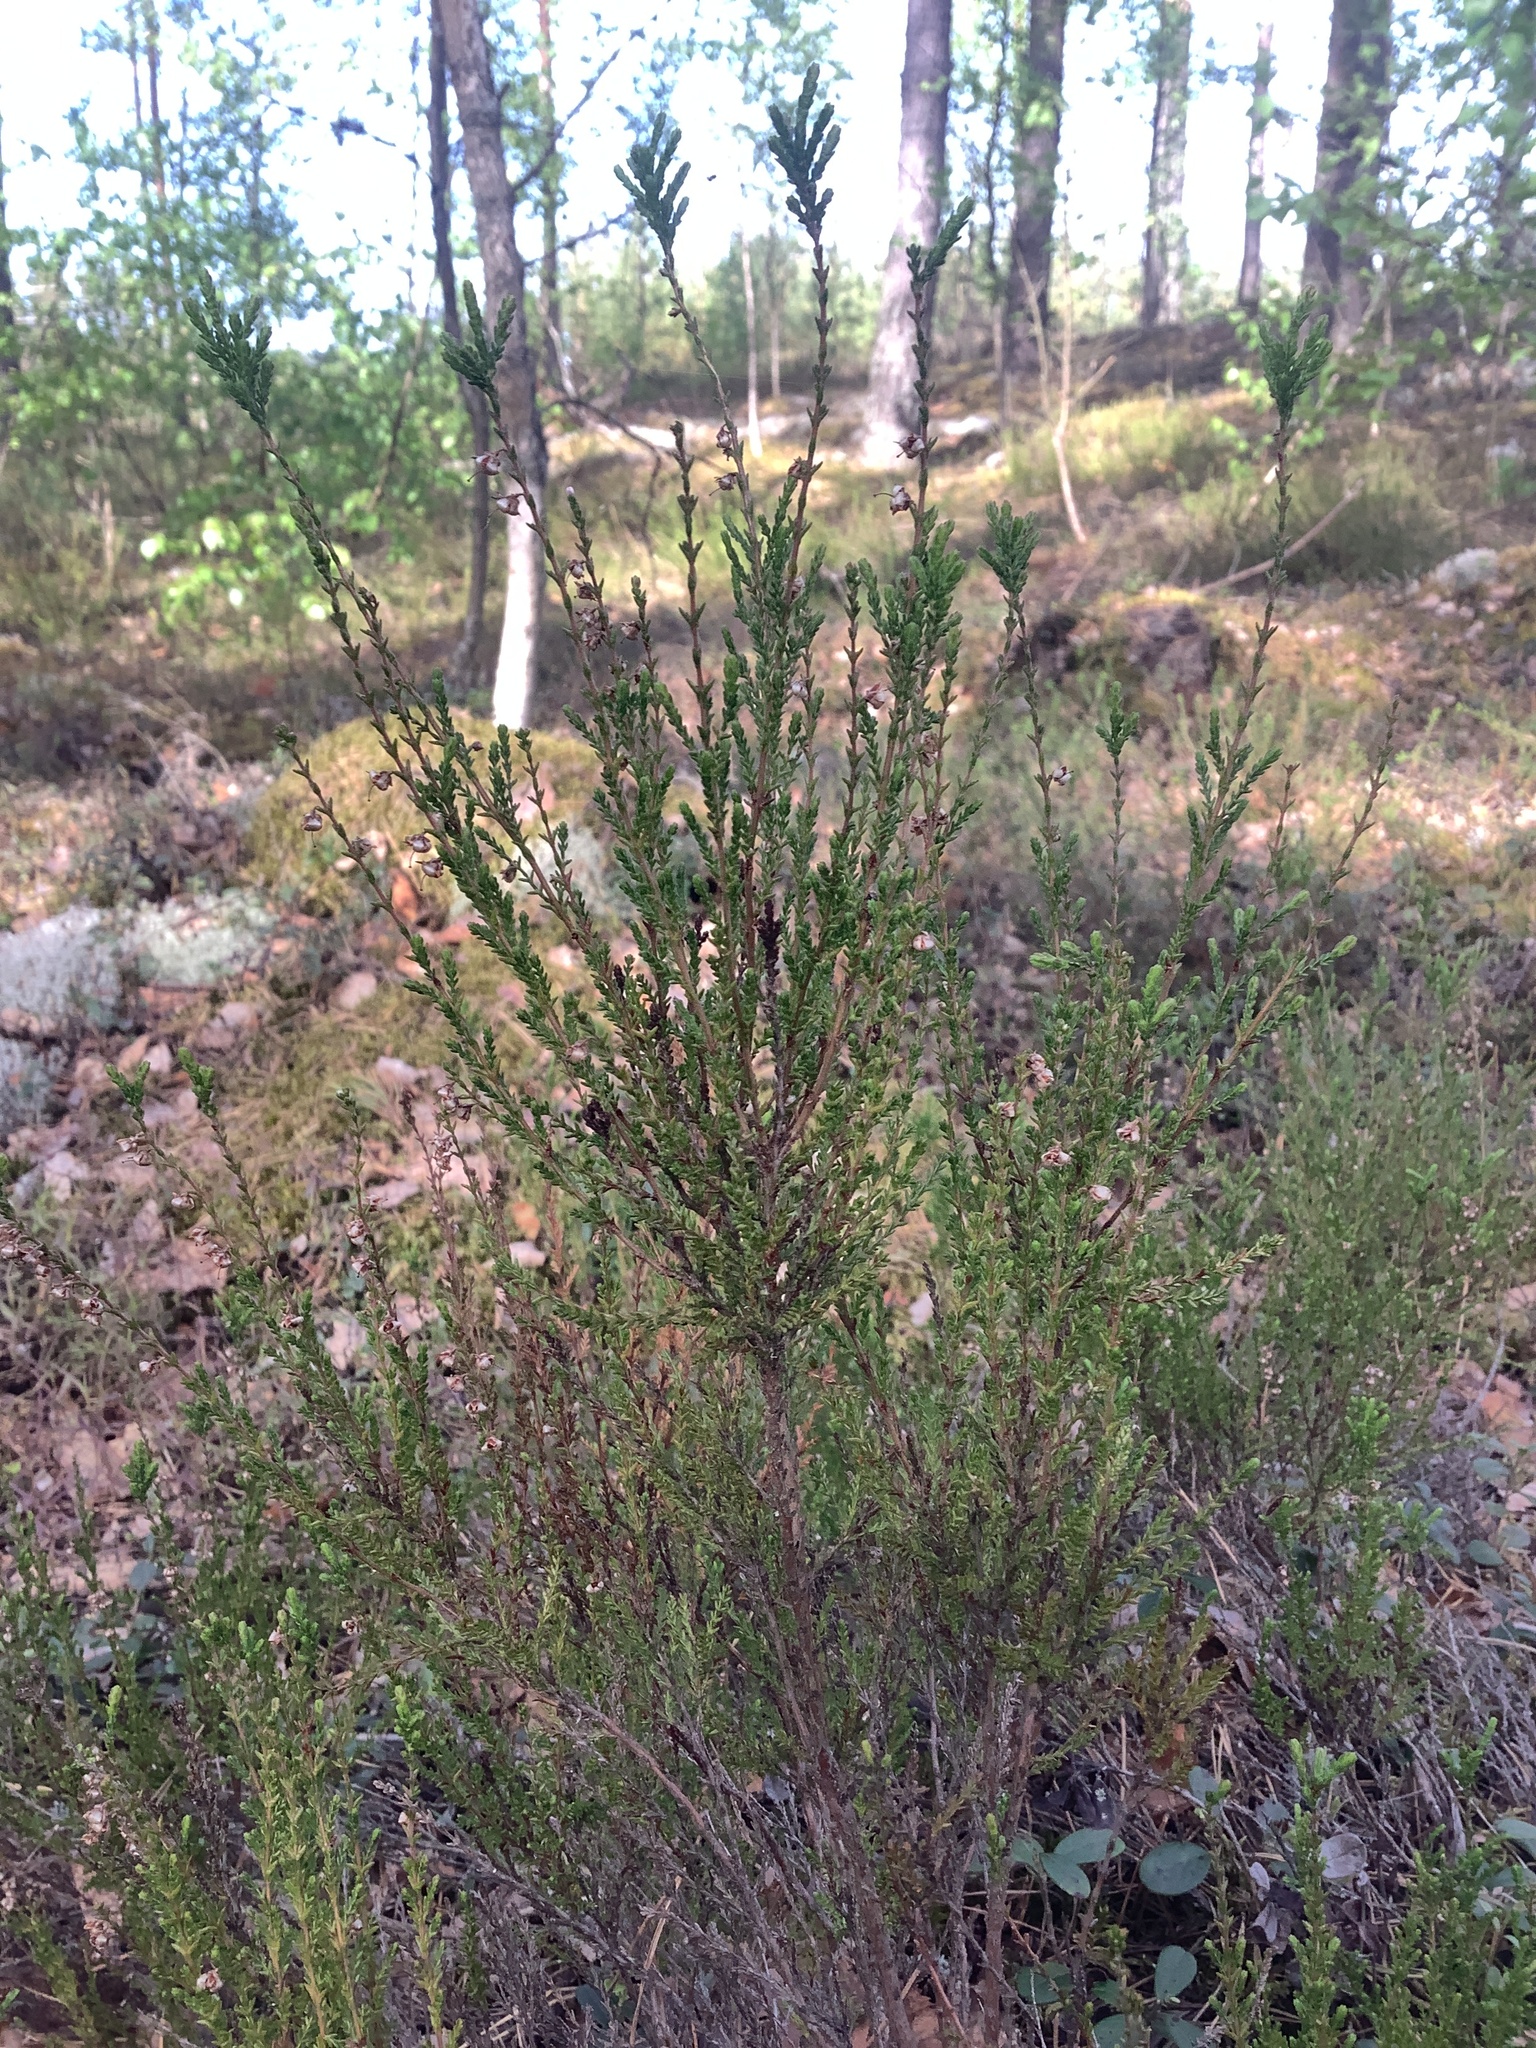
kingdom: Plantae
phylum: Tracheophyta
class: Magnoliopsida
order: Ericales
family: Ericaceae
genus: Calluna
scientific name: Calluna vulgaris
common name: Heather
